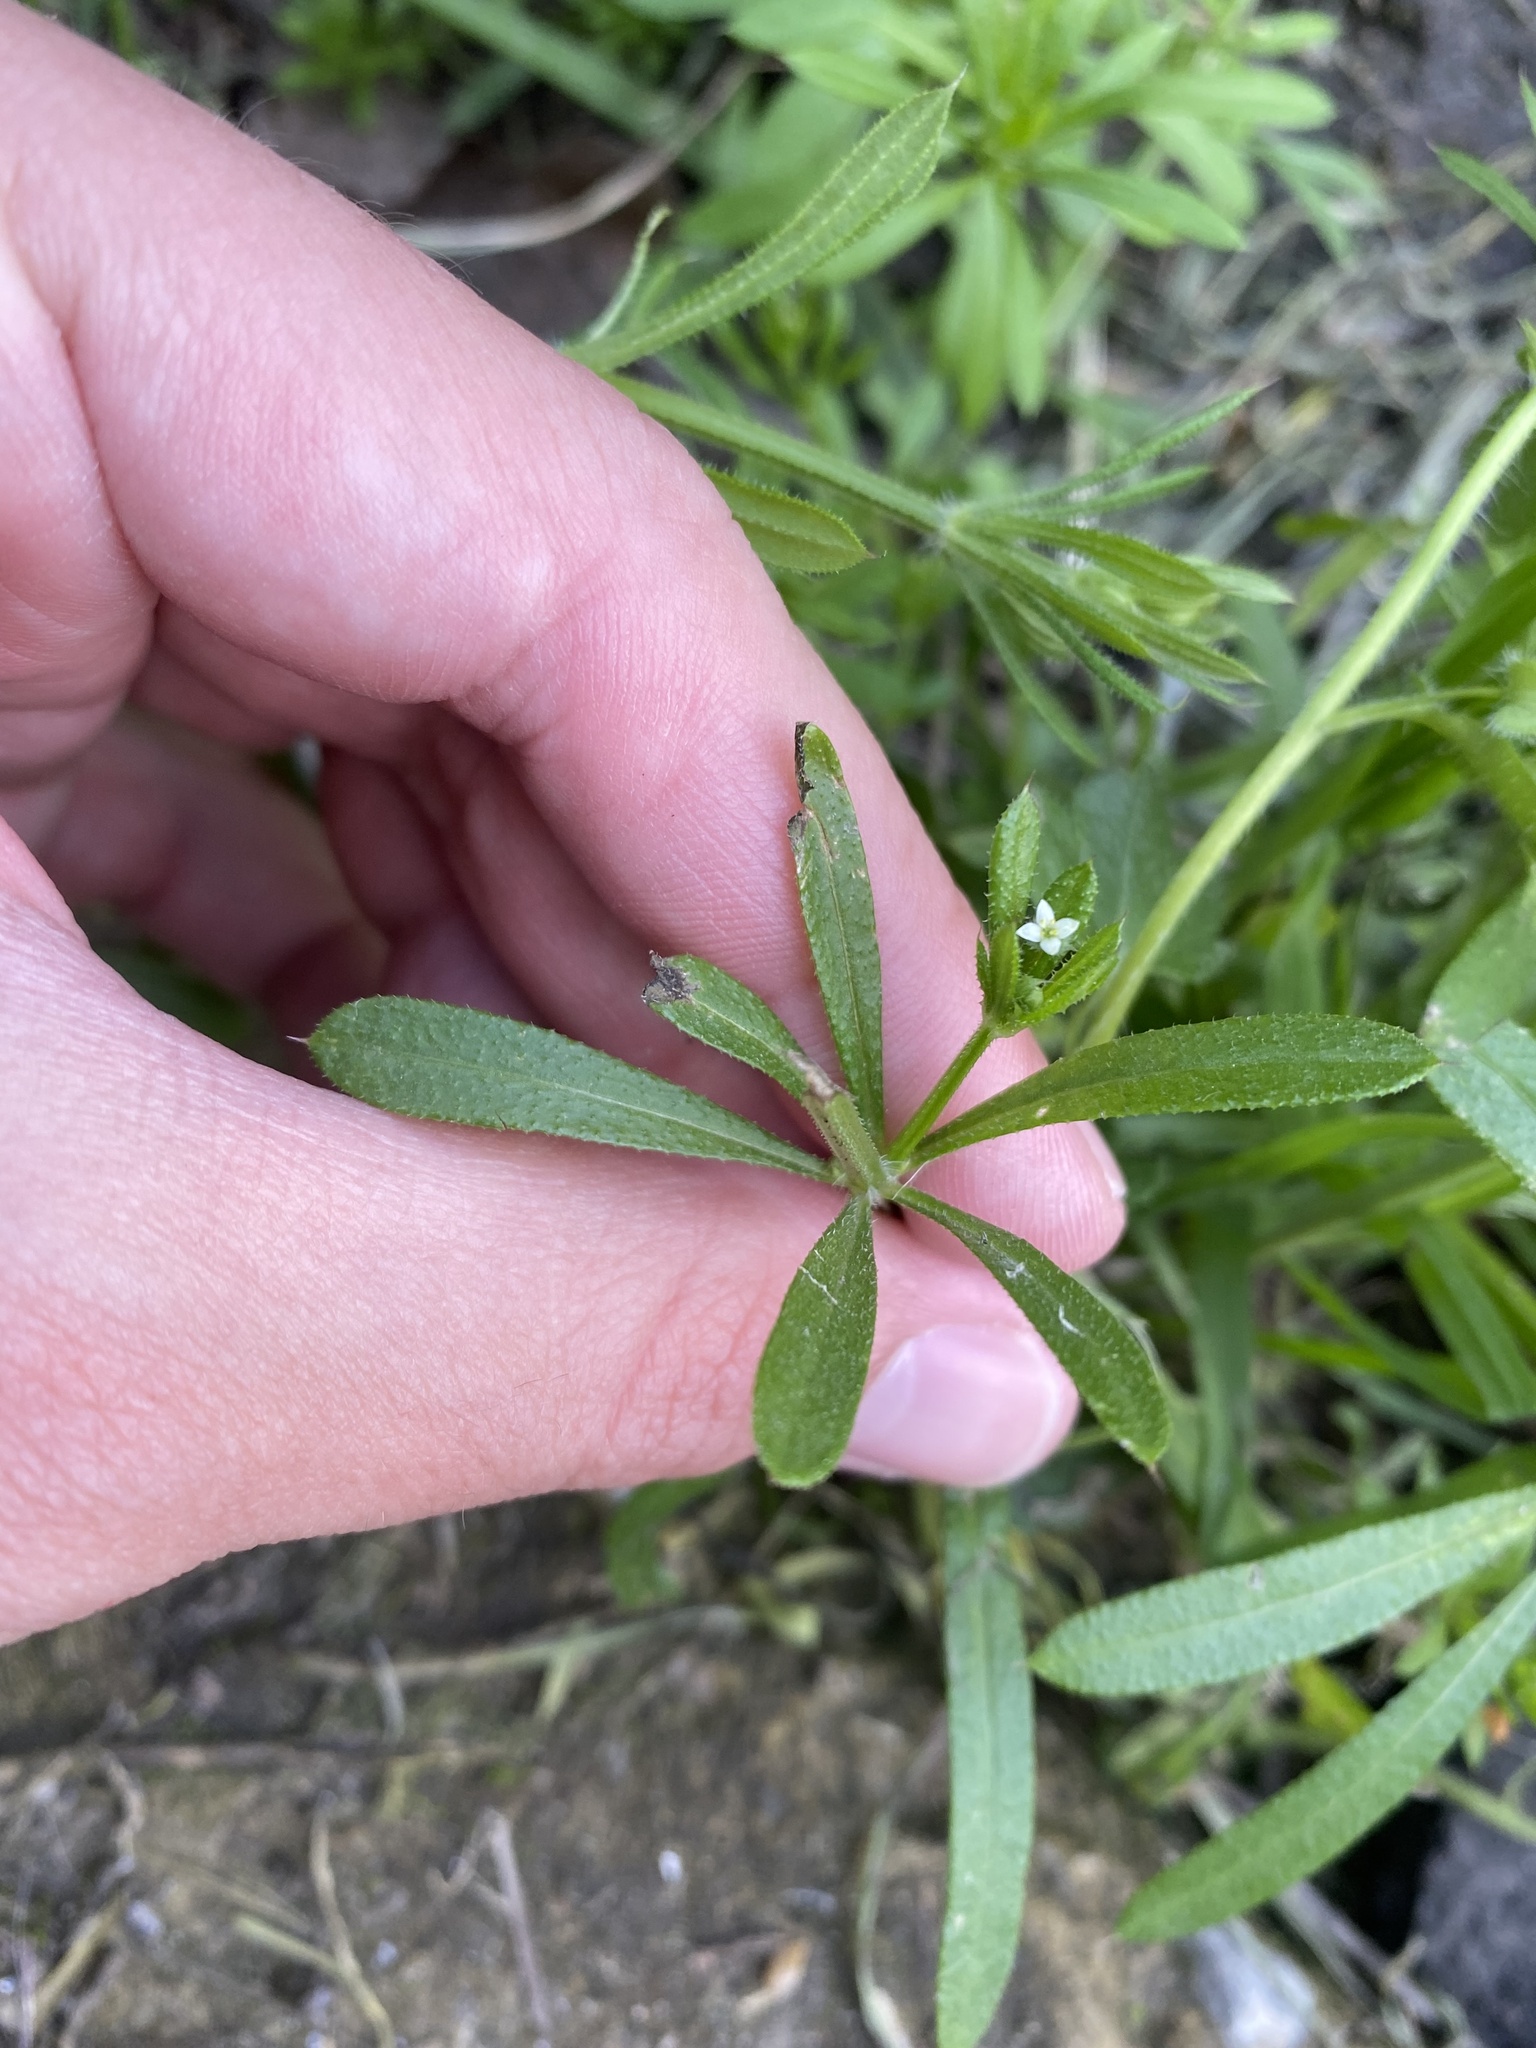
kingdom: Plantae
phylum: Tracheophyta
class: Magnoliopsida
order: Gentianales
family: Rubiaceae
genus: Galium
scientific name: Galium aparine
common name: Cleavers
